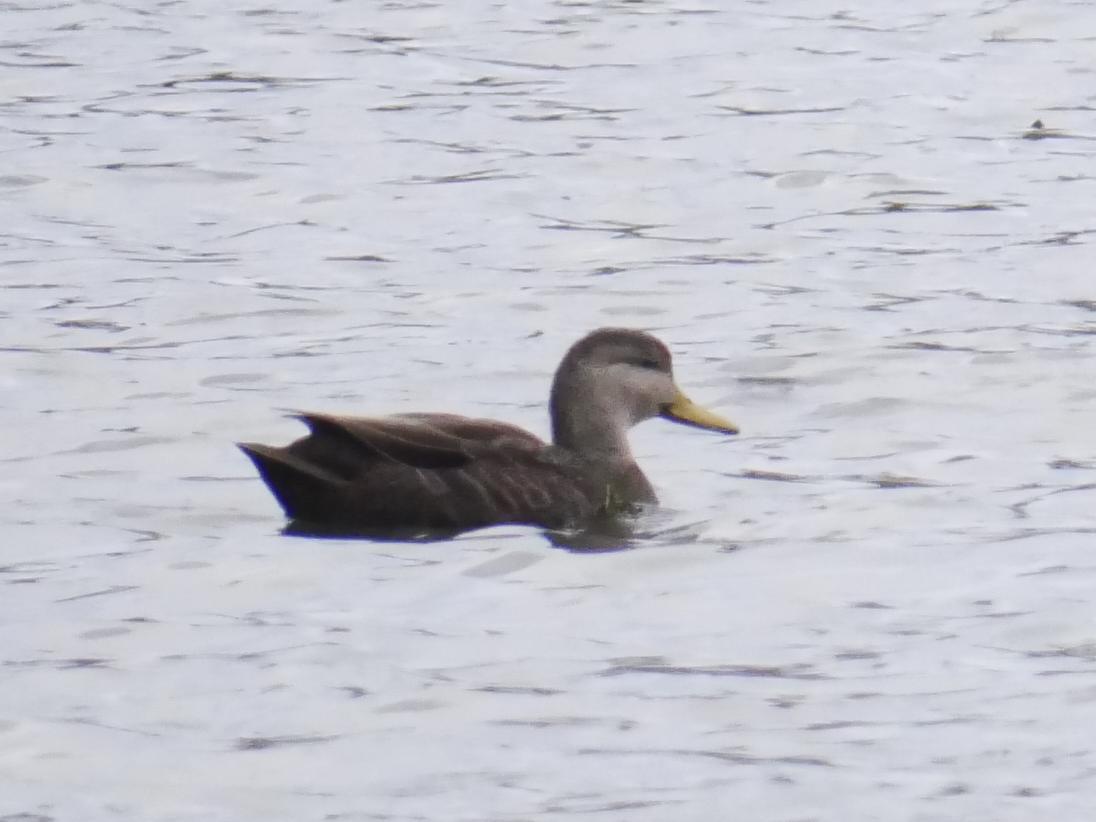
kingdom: Animalia
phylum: Chordata
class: Aves
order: Anseriformes
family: Anatidae
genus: Anas
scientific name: Anas rubripes
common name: American black duck
